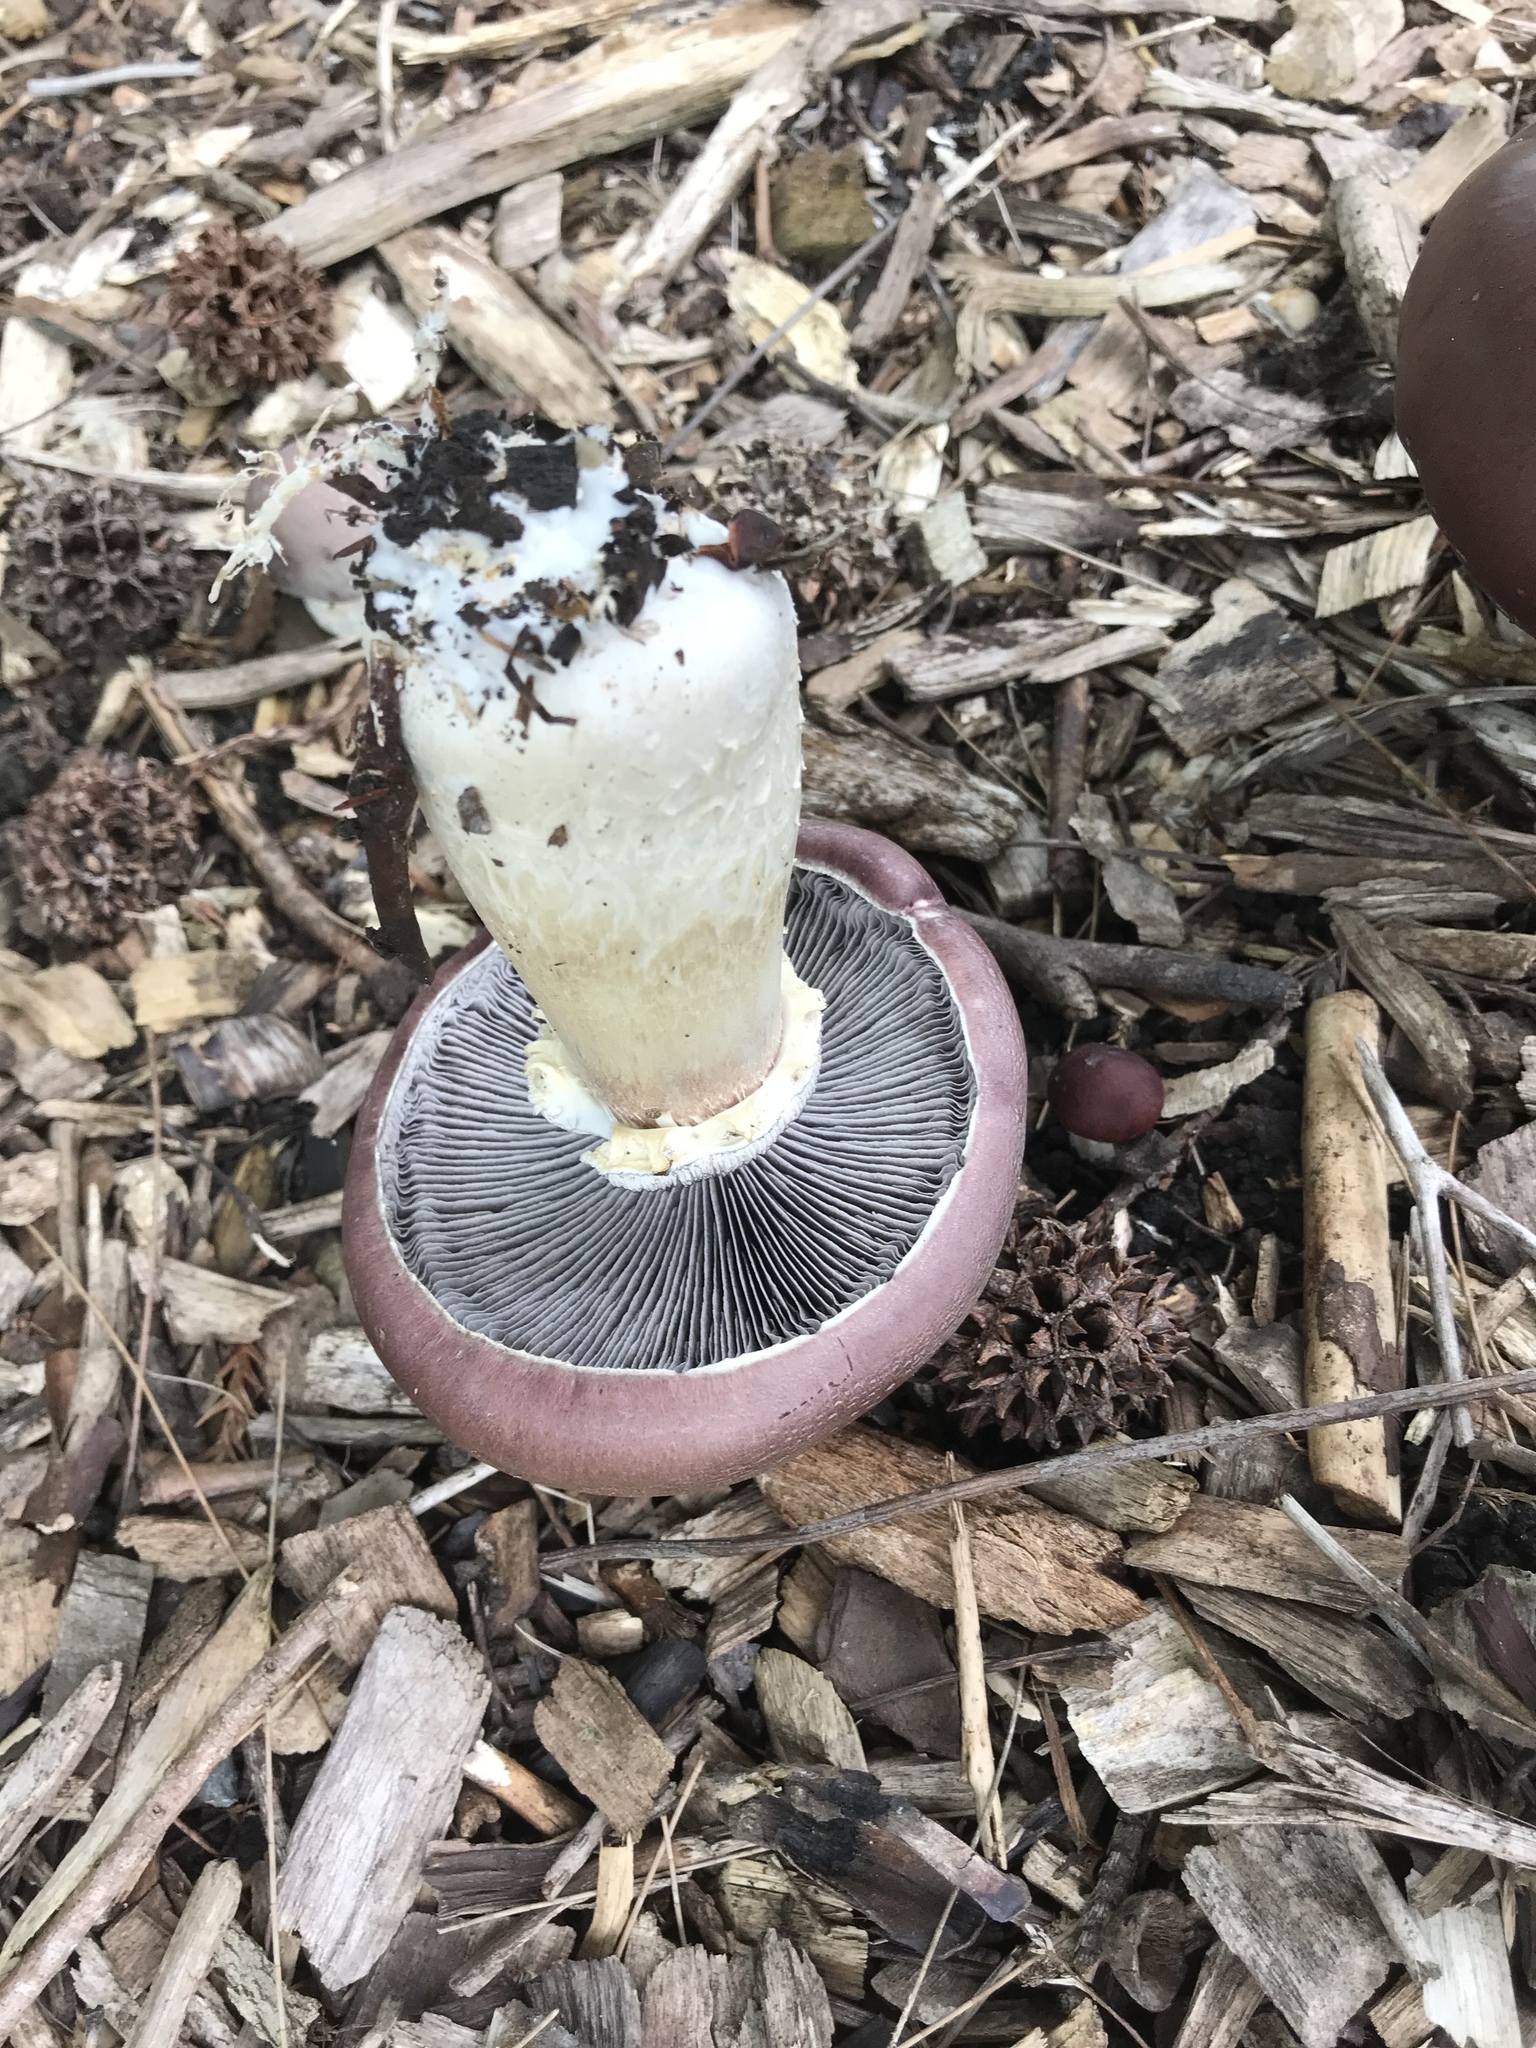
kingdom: Fungi
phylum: Basidiomycota
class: Agaricomycetes
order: Agaricales
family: Strophariaceae
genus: Stropharia
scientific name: Stropharia rugosoannulata
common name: Wine roundhead
